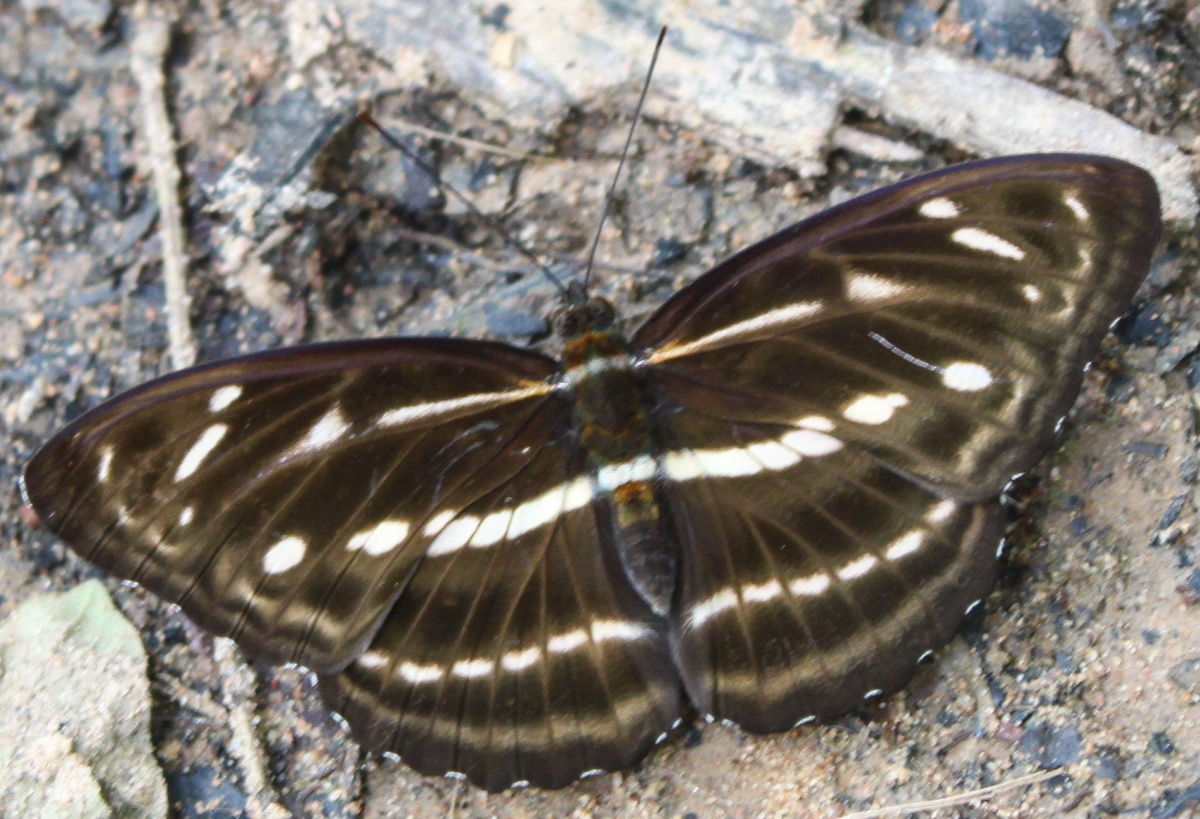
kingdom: Animalia
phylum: Arthropoda
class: Insecta
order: Lepidoptera
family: Nymphalidae
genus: Parathyma
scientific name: Parathyma kanwa
